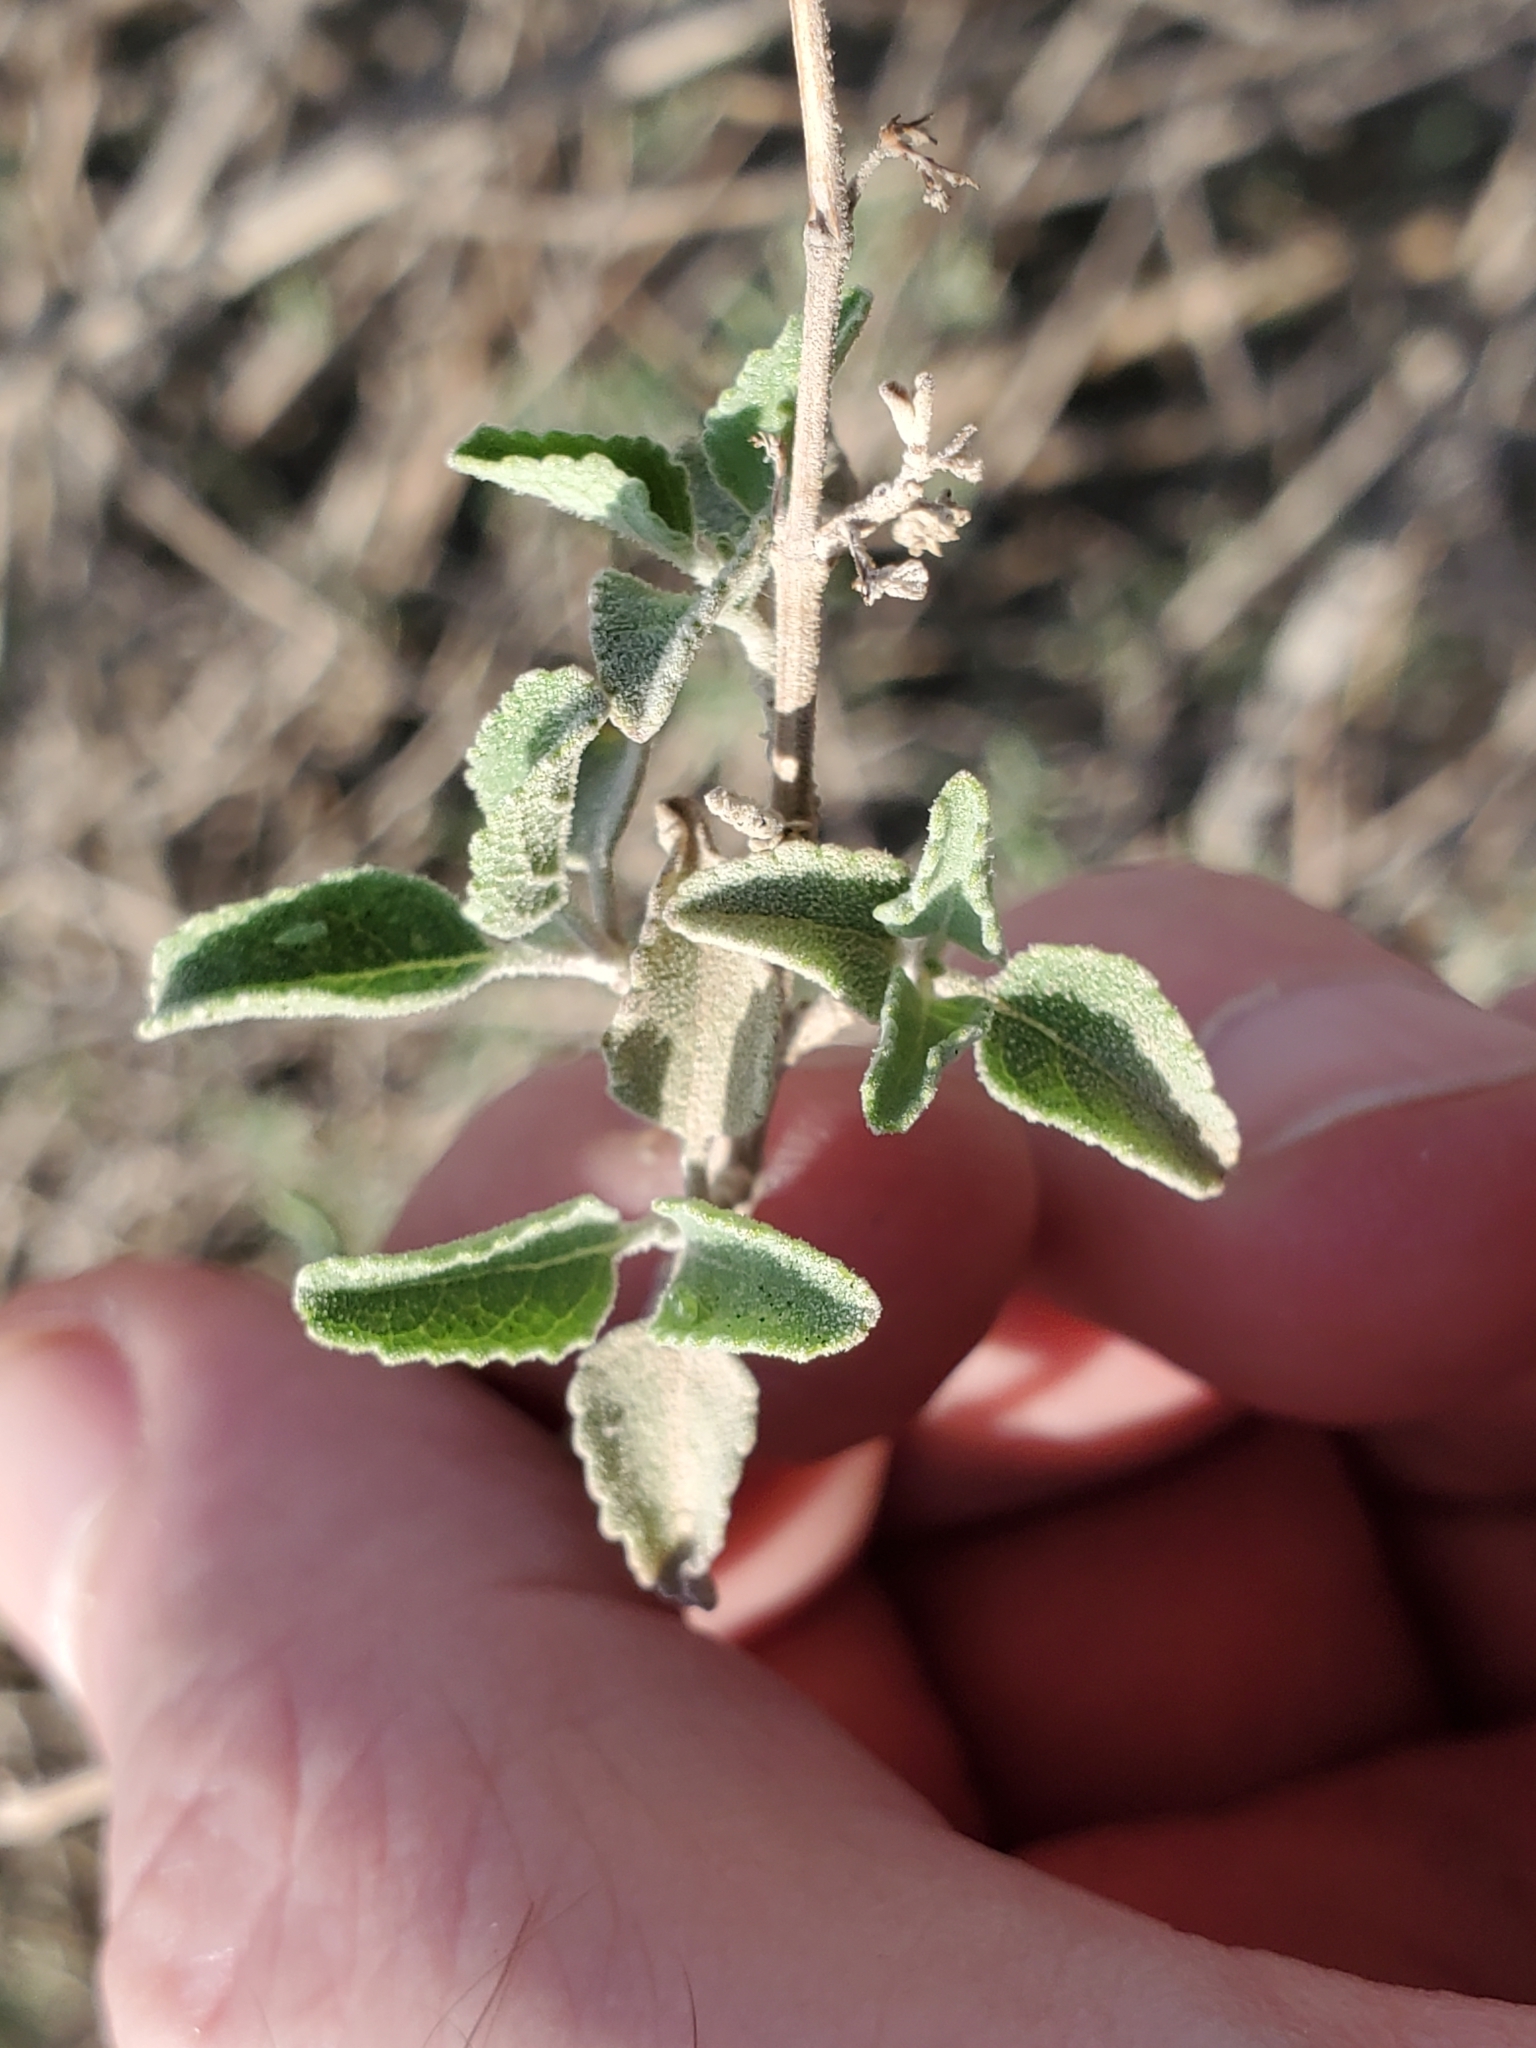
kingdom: Plantae
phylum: Tracheophyta
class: Magnoliopsida
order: Lamiales
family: Lamiaceae
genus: Condea
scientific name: Condea emoryi
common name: Chia
